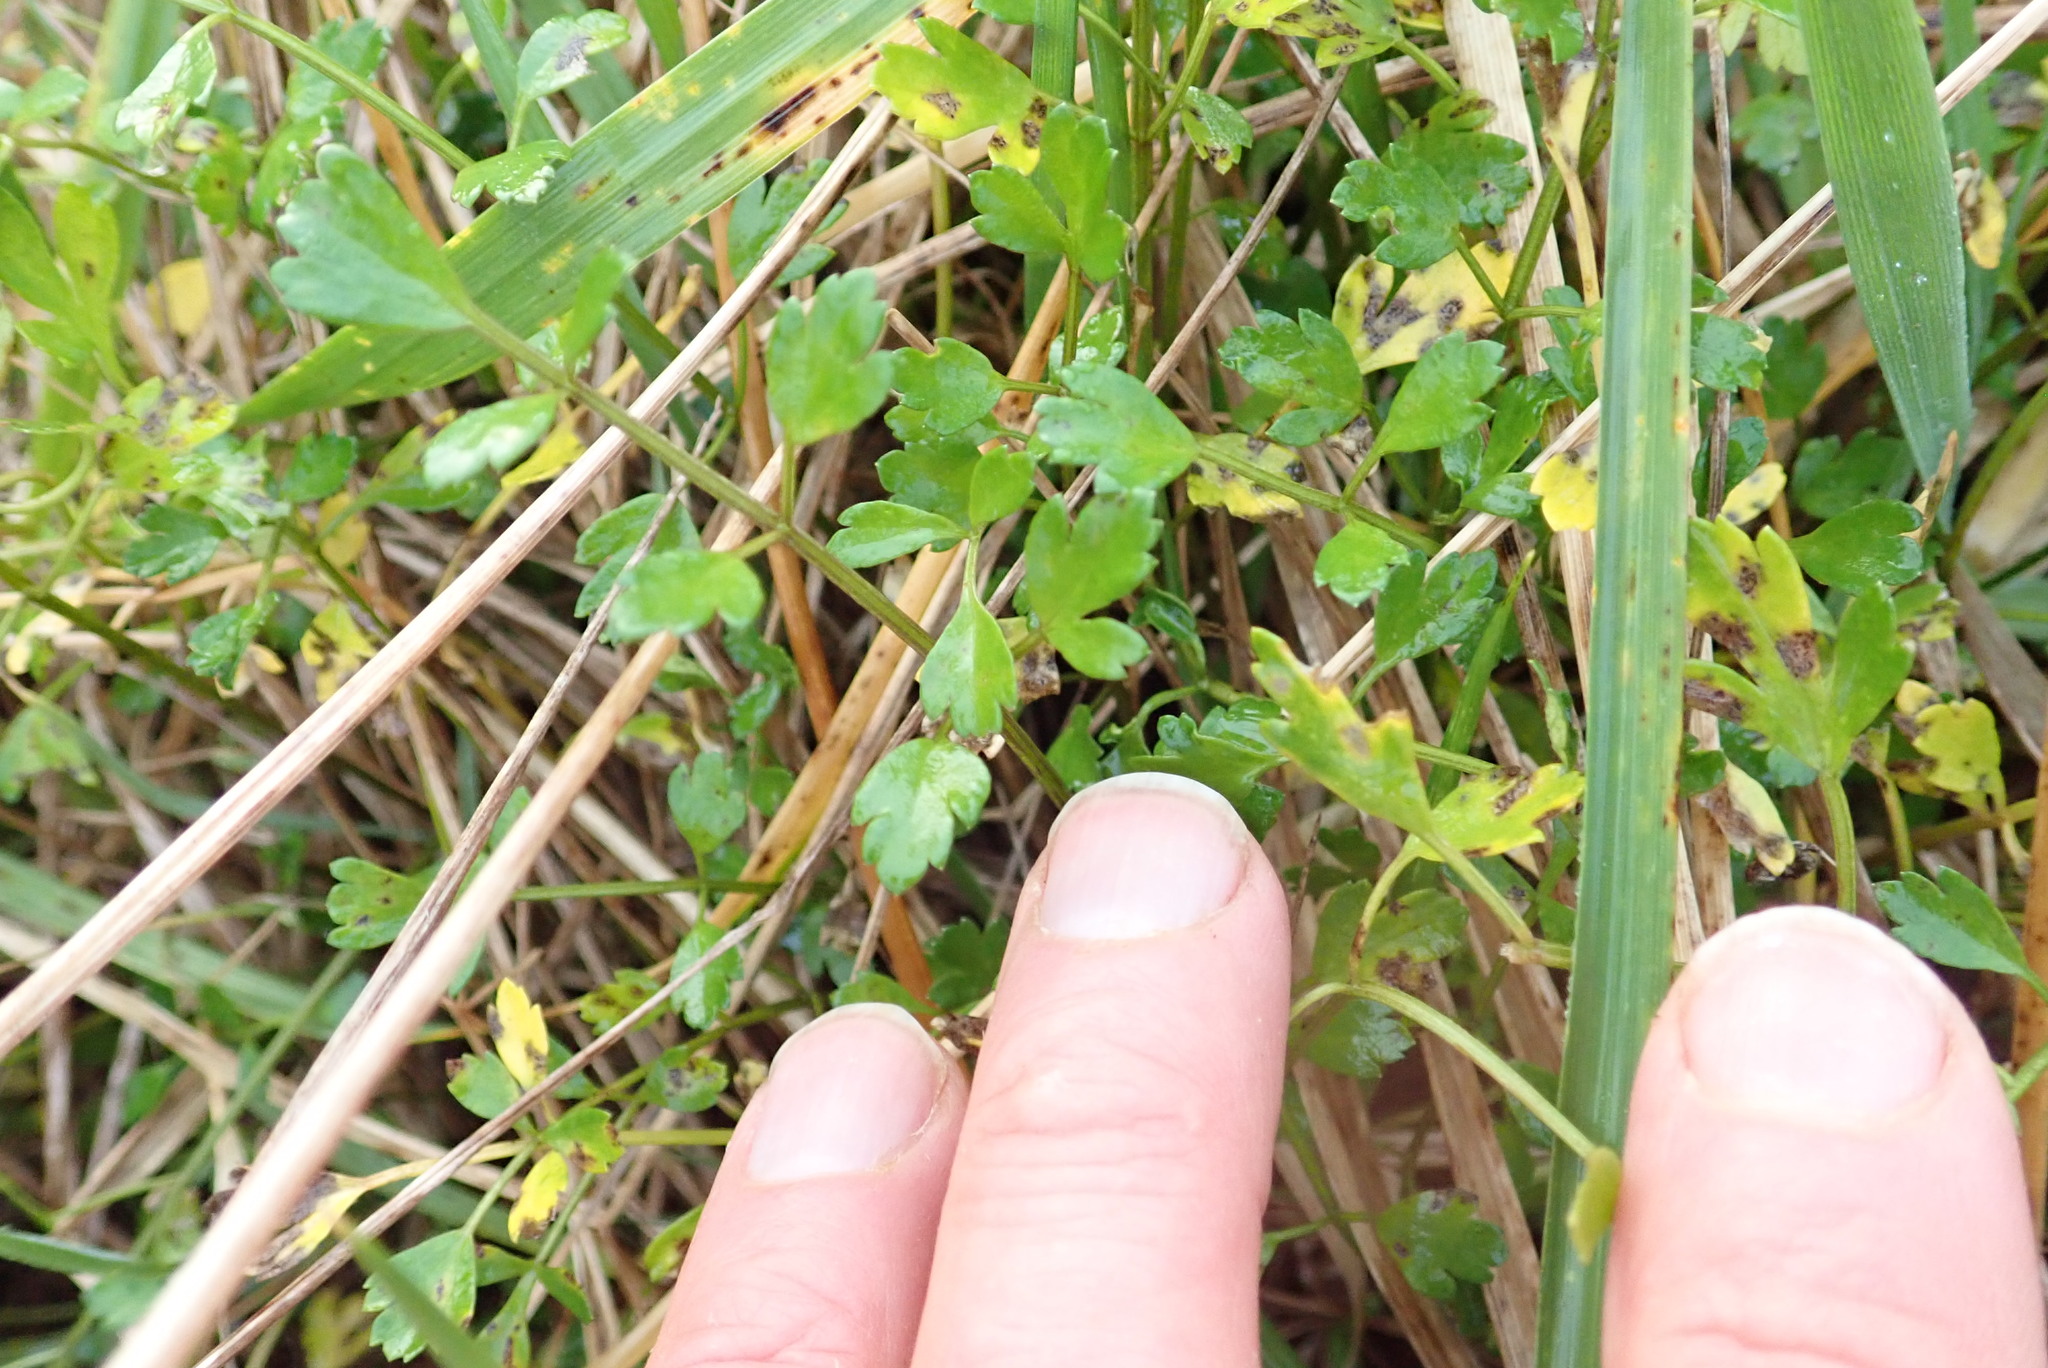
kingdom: Plantae
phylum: Tracheophyta
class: Magnoliopsida
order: Apiales
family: Apiaceae
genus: Apium
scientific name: Apium prostratum
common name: Prostrate marshwort
